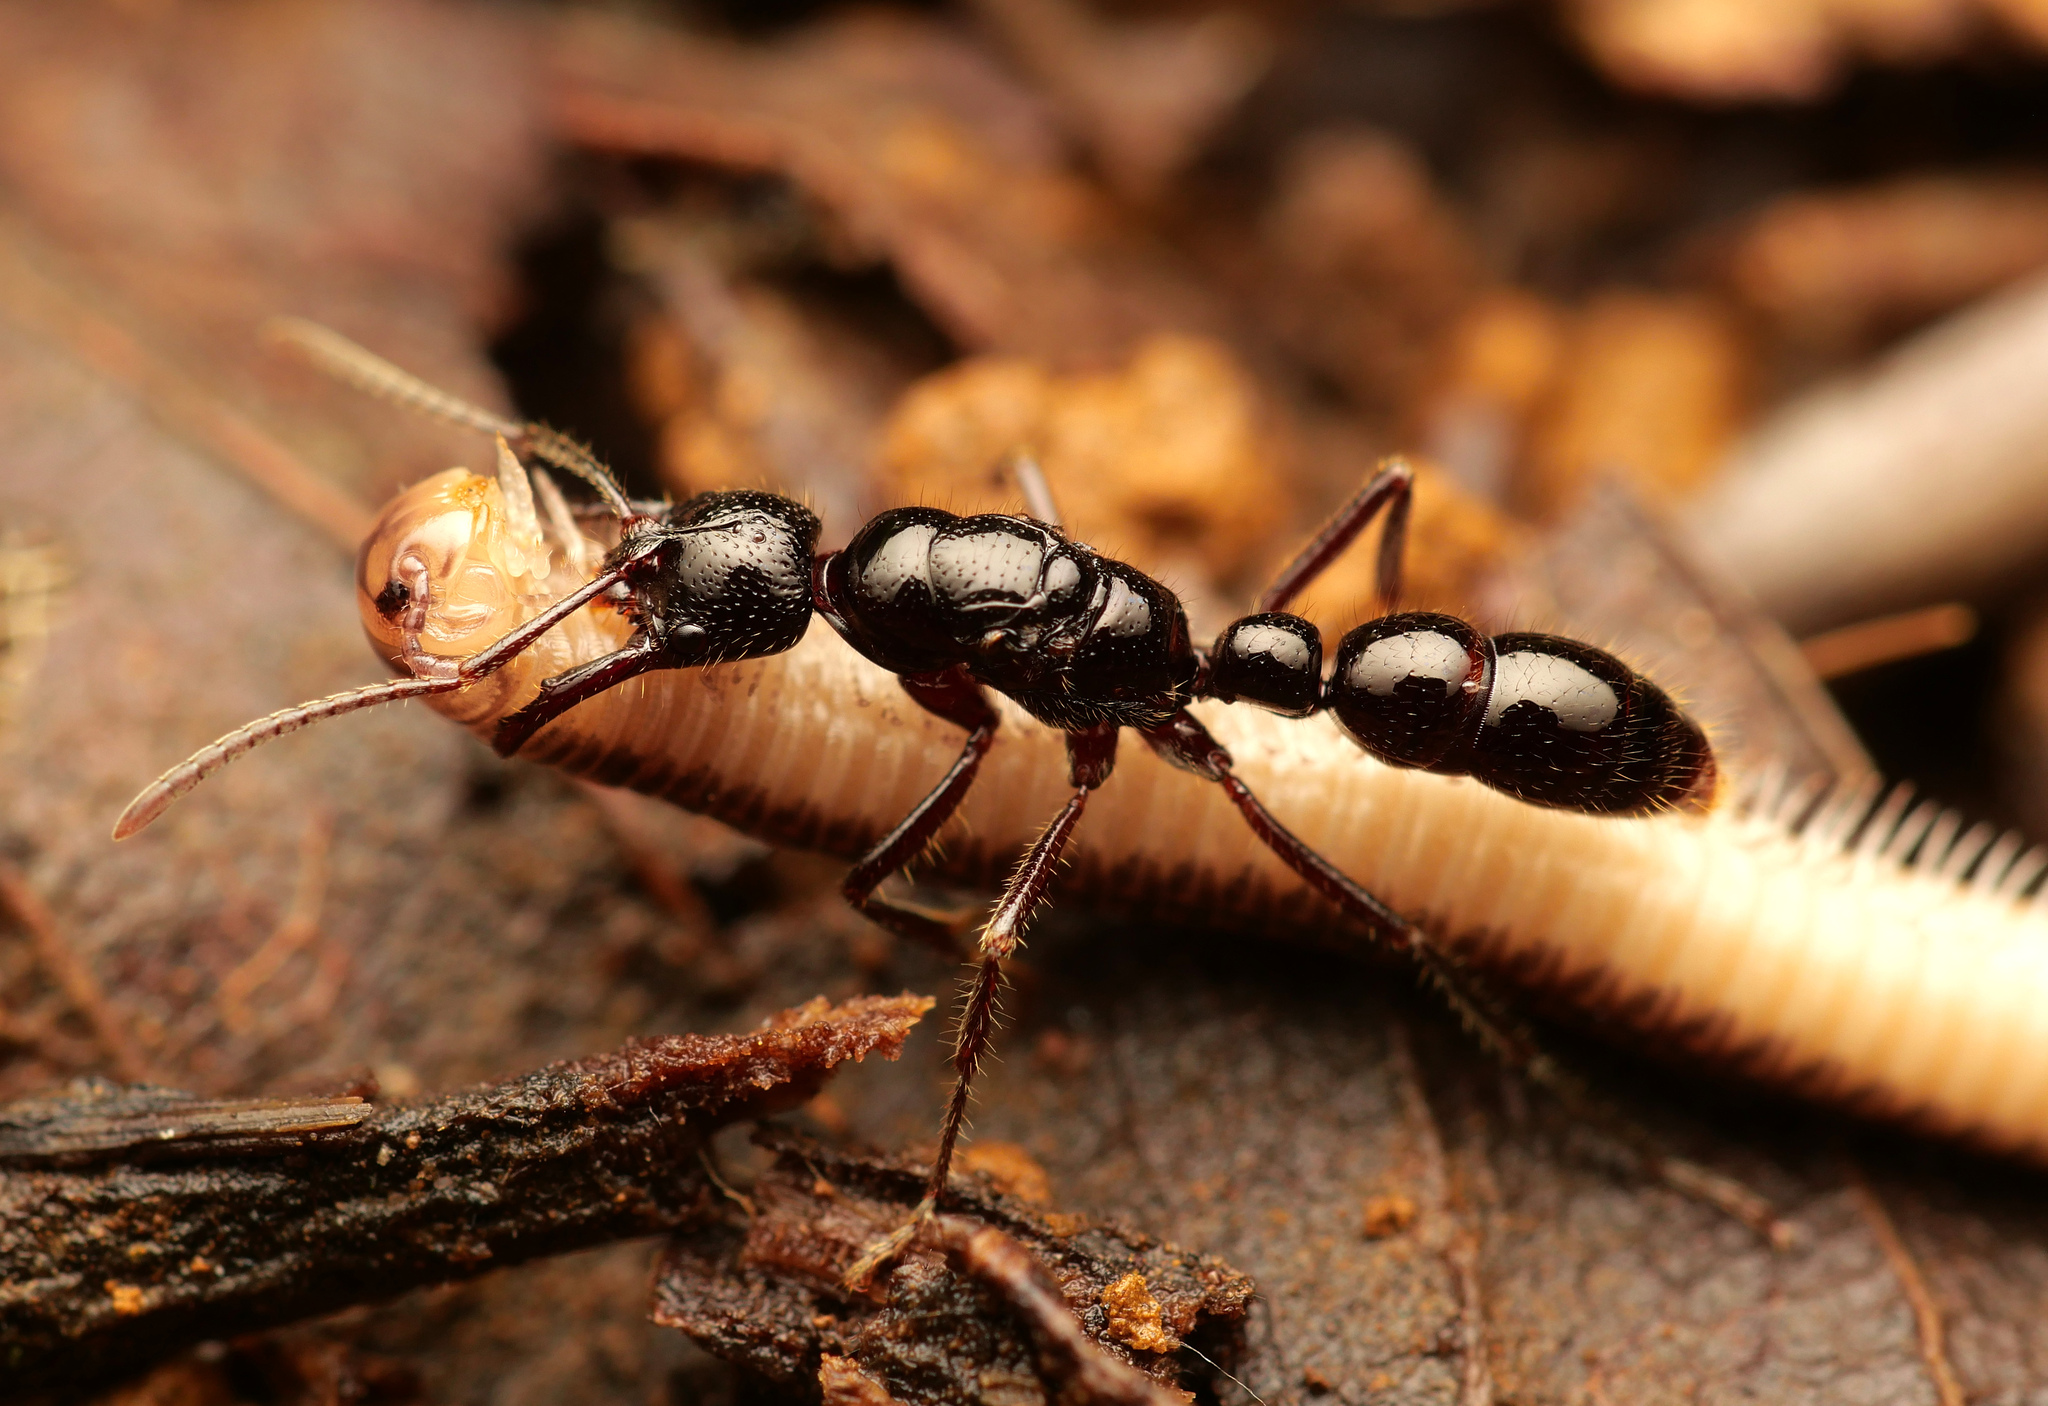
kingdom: Animalia
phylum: Arthropoda
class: Insecta
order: Hymenoptera
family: Formicidae
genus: Myopias
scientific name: Myopias loriai
